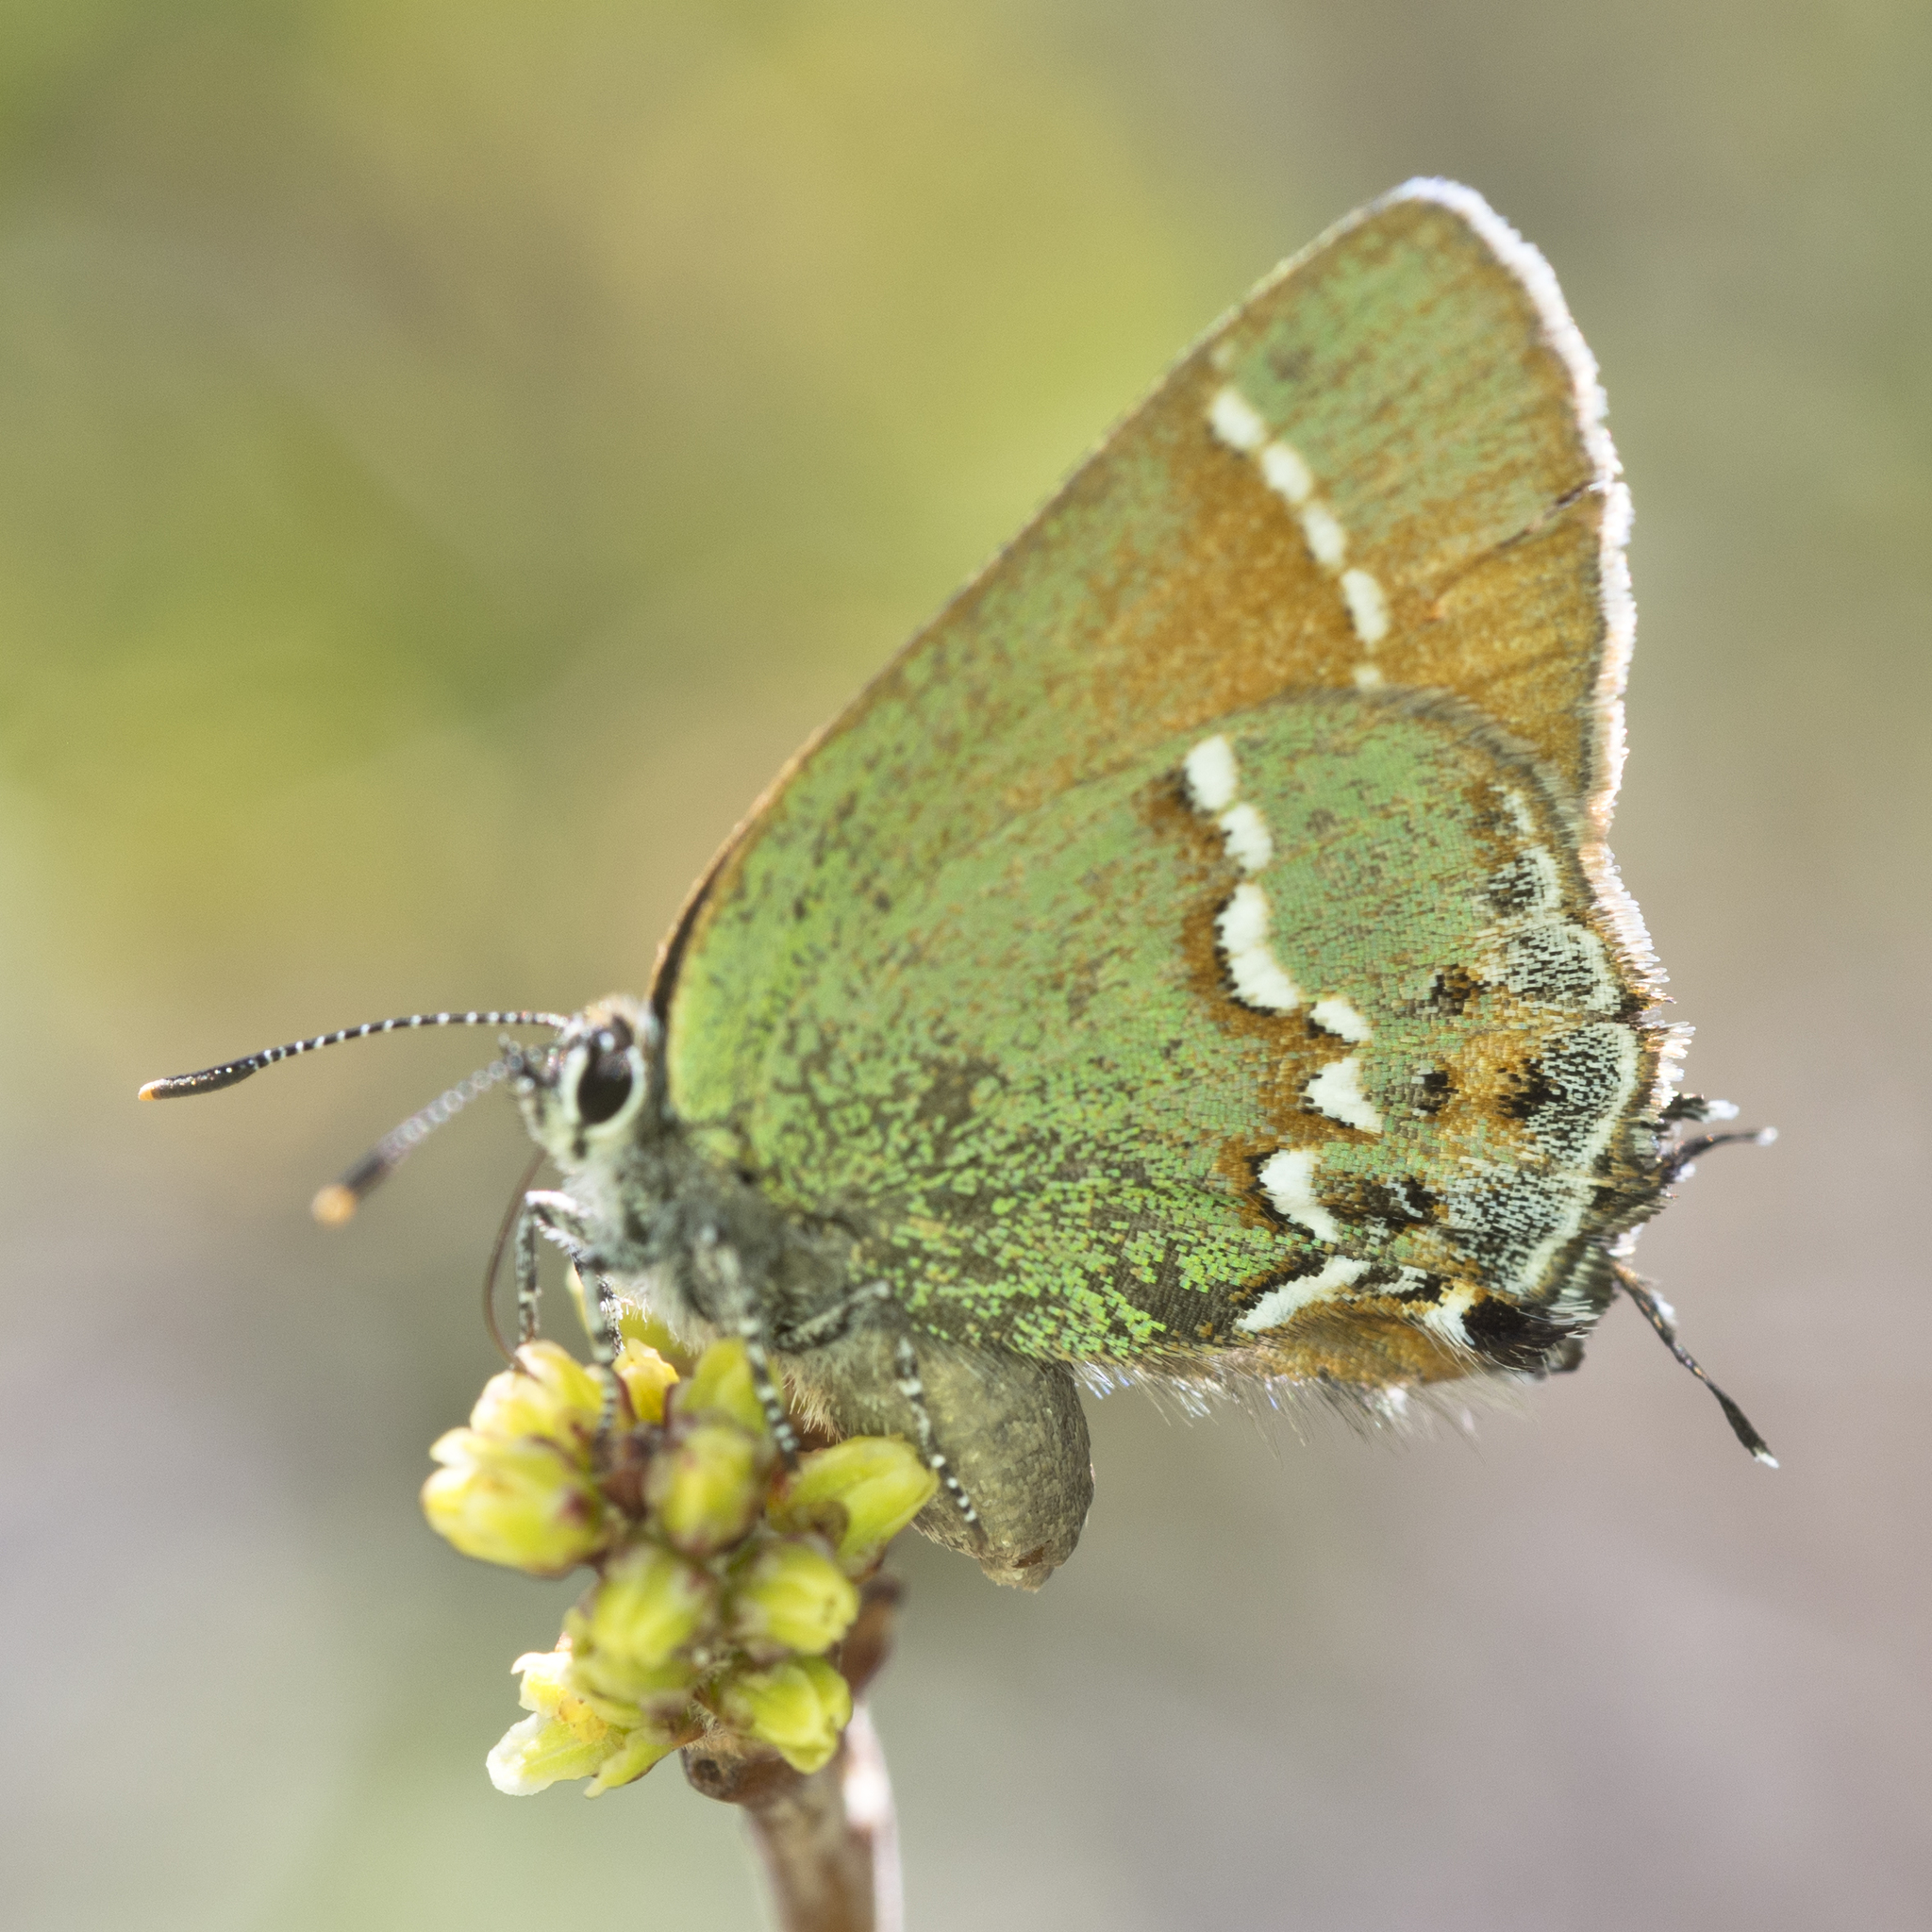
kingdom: Animalia
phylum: Arthropoda
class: Insecta
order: Lepidoptera
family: Lycaenidae
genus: Mitoura
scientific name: Mitoura siva
